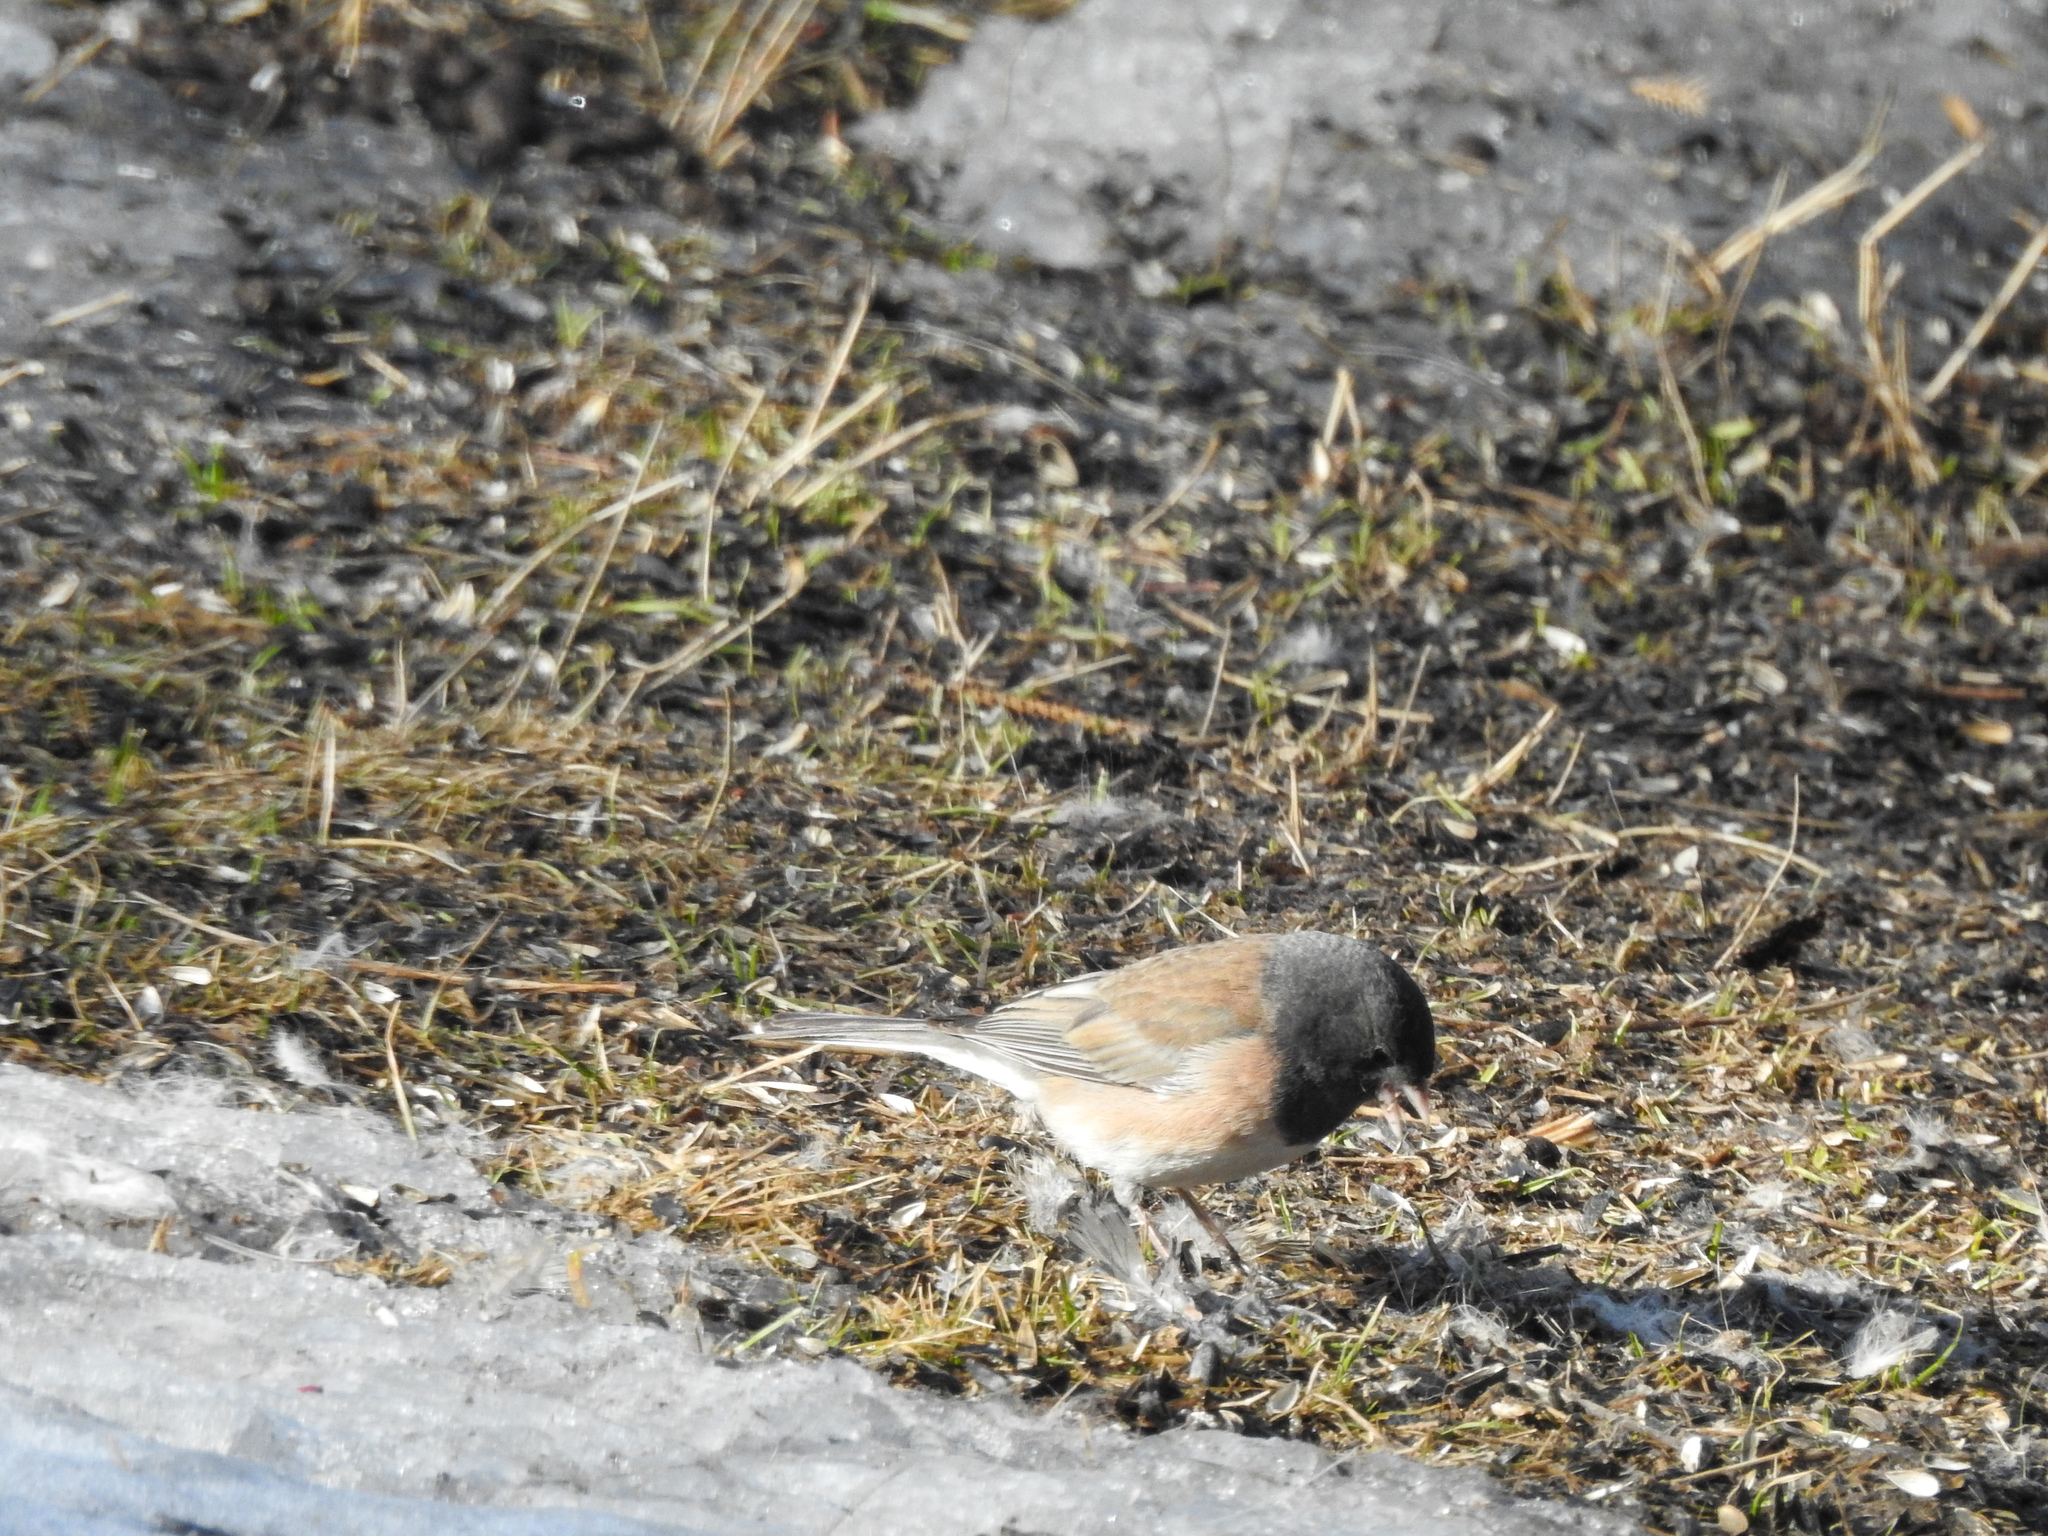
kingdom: Animalia
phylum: Chordata
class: Aves
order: Passeriformes
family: Passerellidae
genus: Junco
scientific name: Junco hyemalis
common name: Dark-eyed junco
